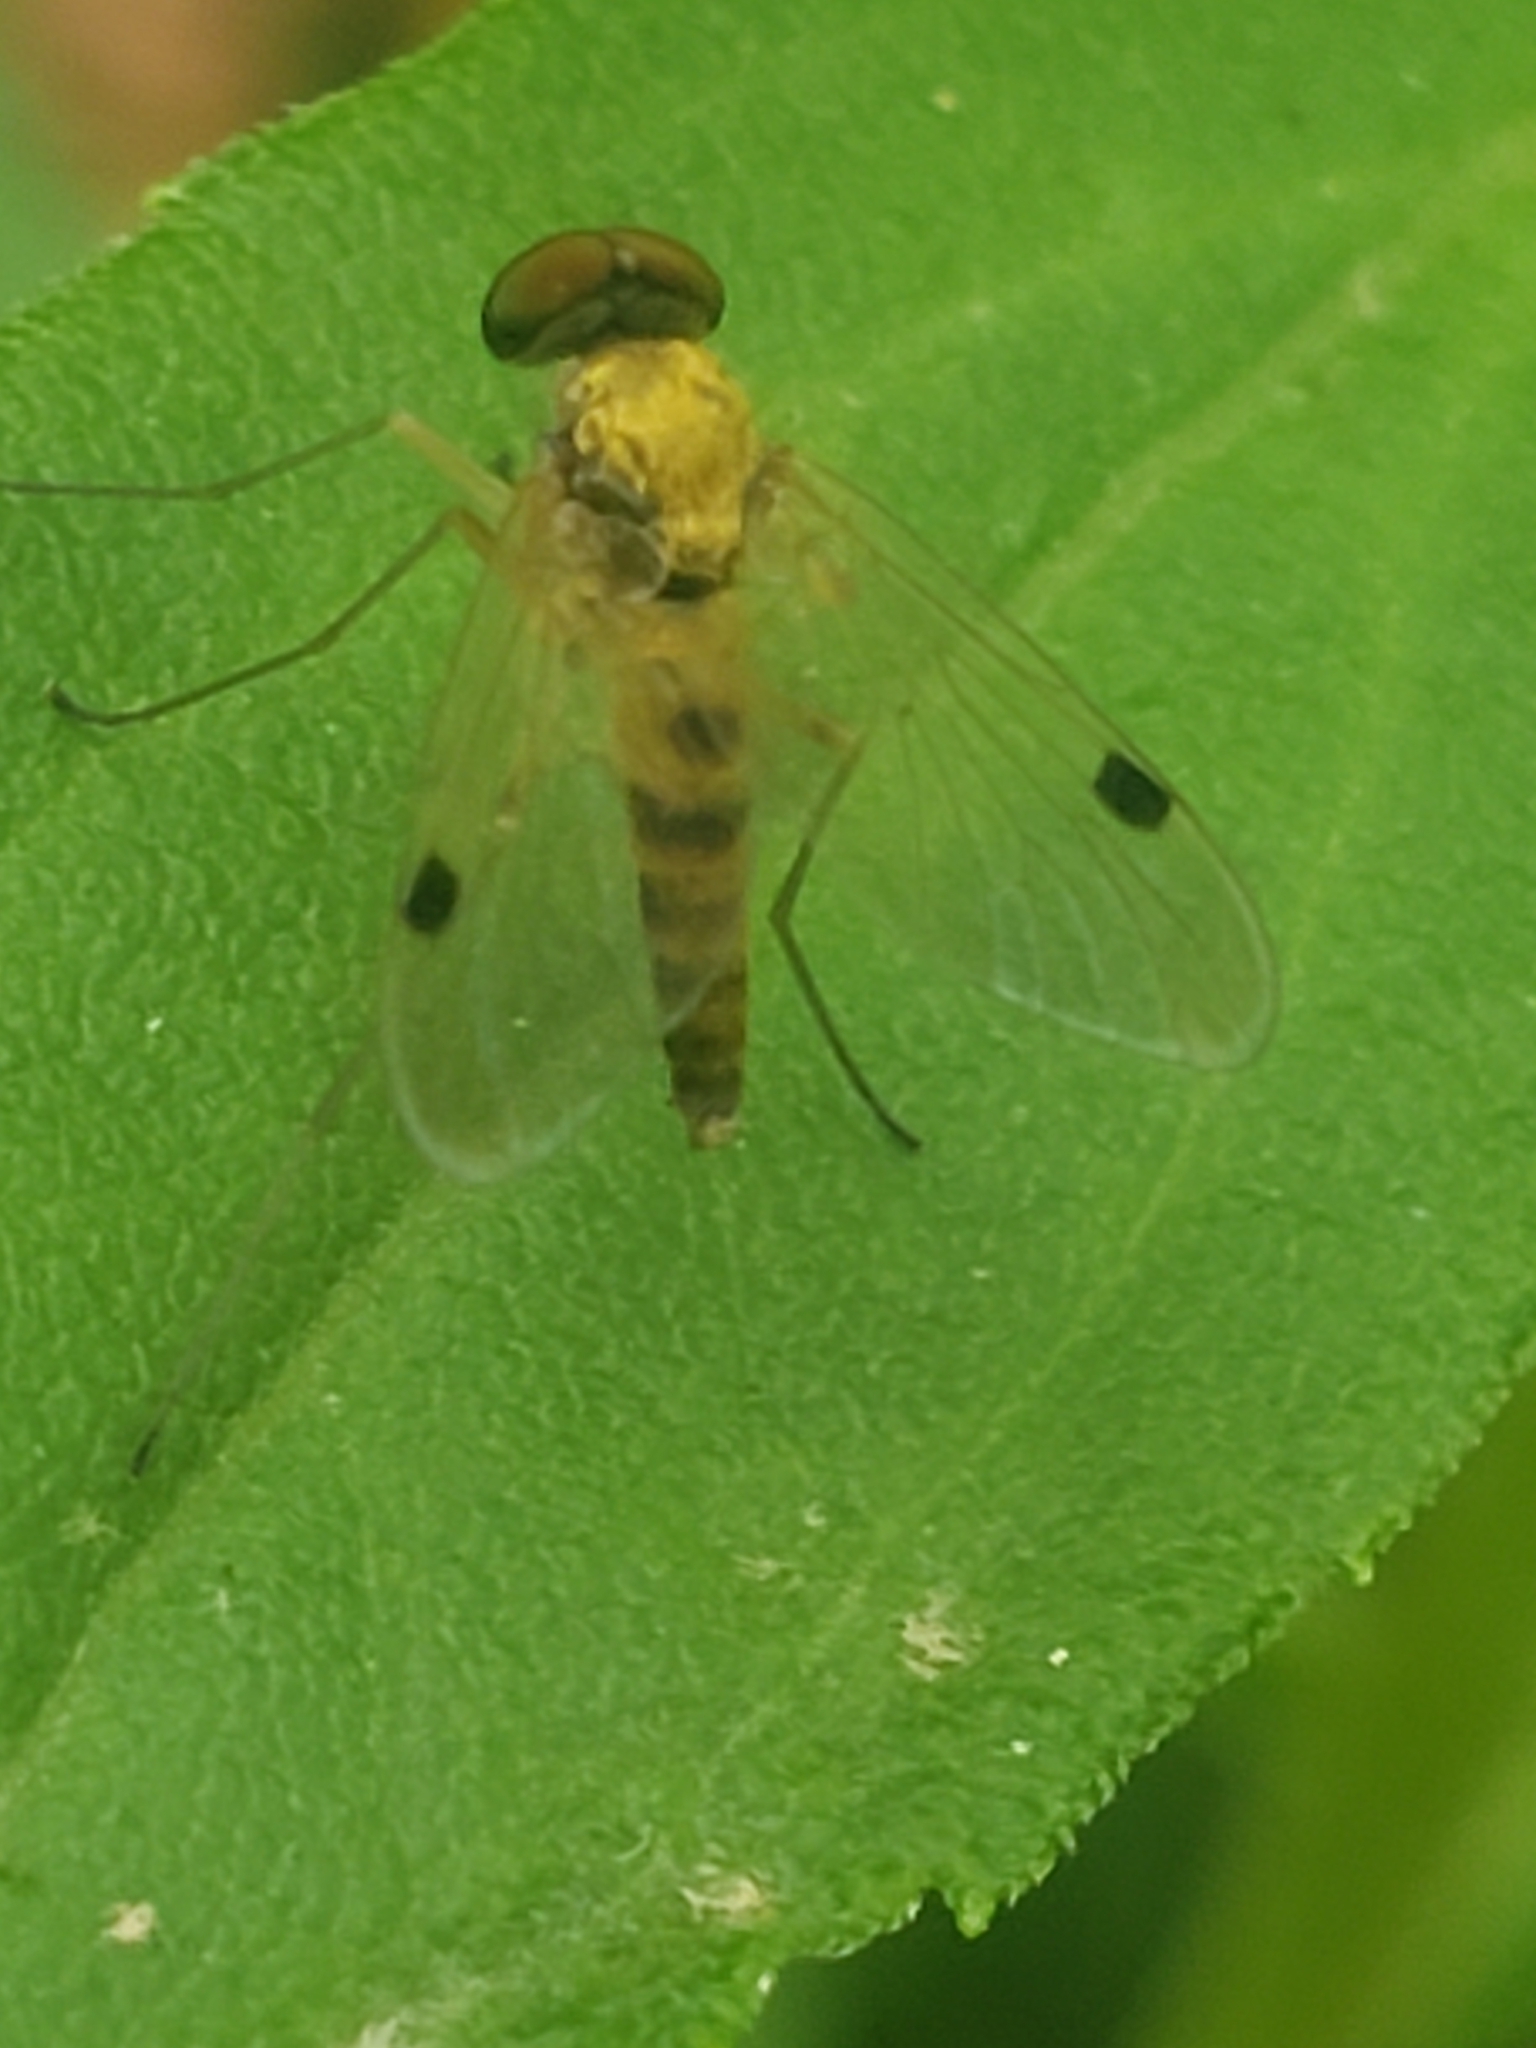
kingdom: Animalia
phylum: Arthropoda
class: Insecta
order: Diptera
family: Rhagionidae
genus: Chrysopilus
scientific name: Chrysopilus modestus
